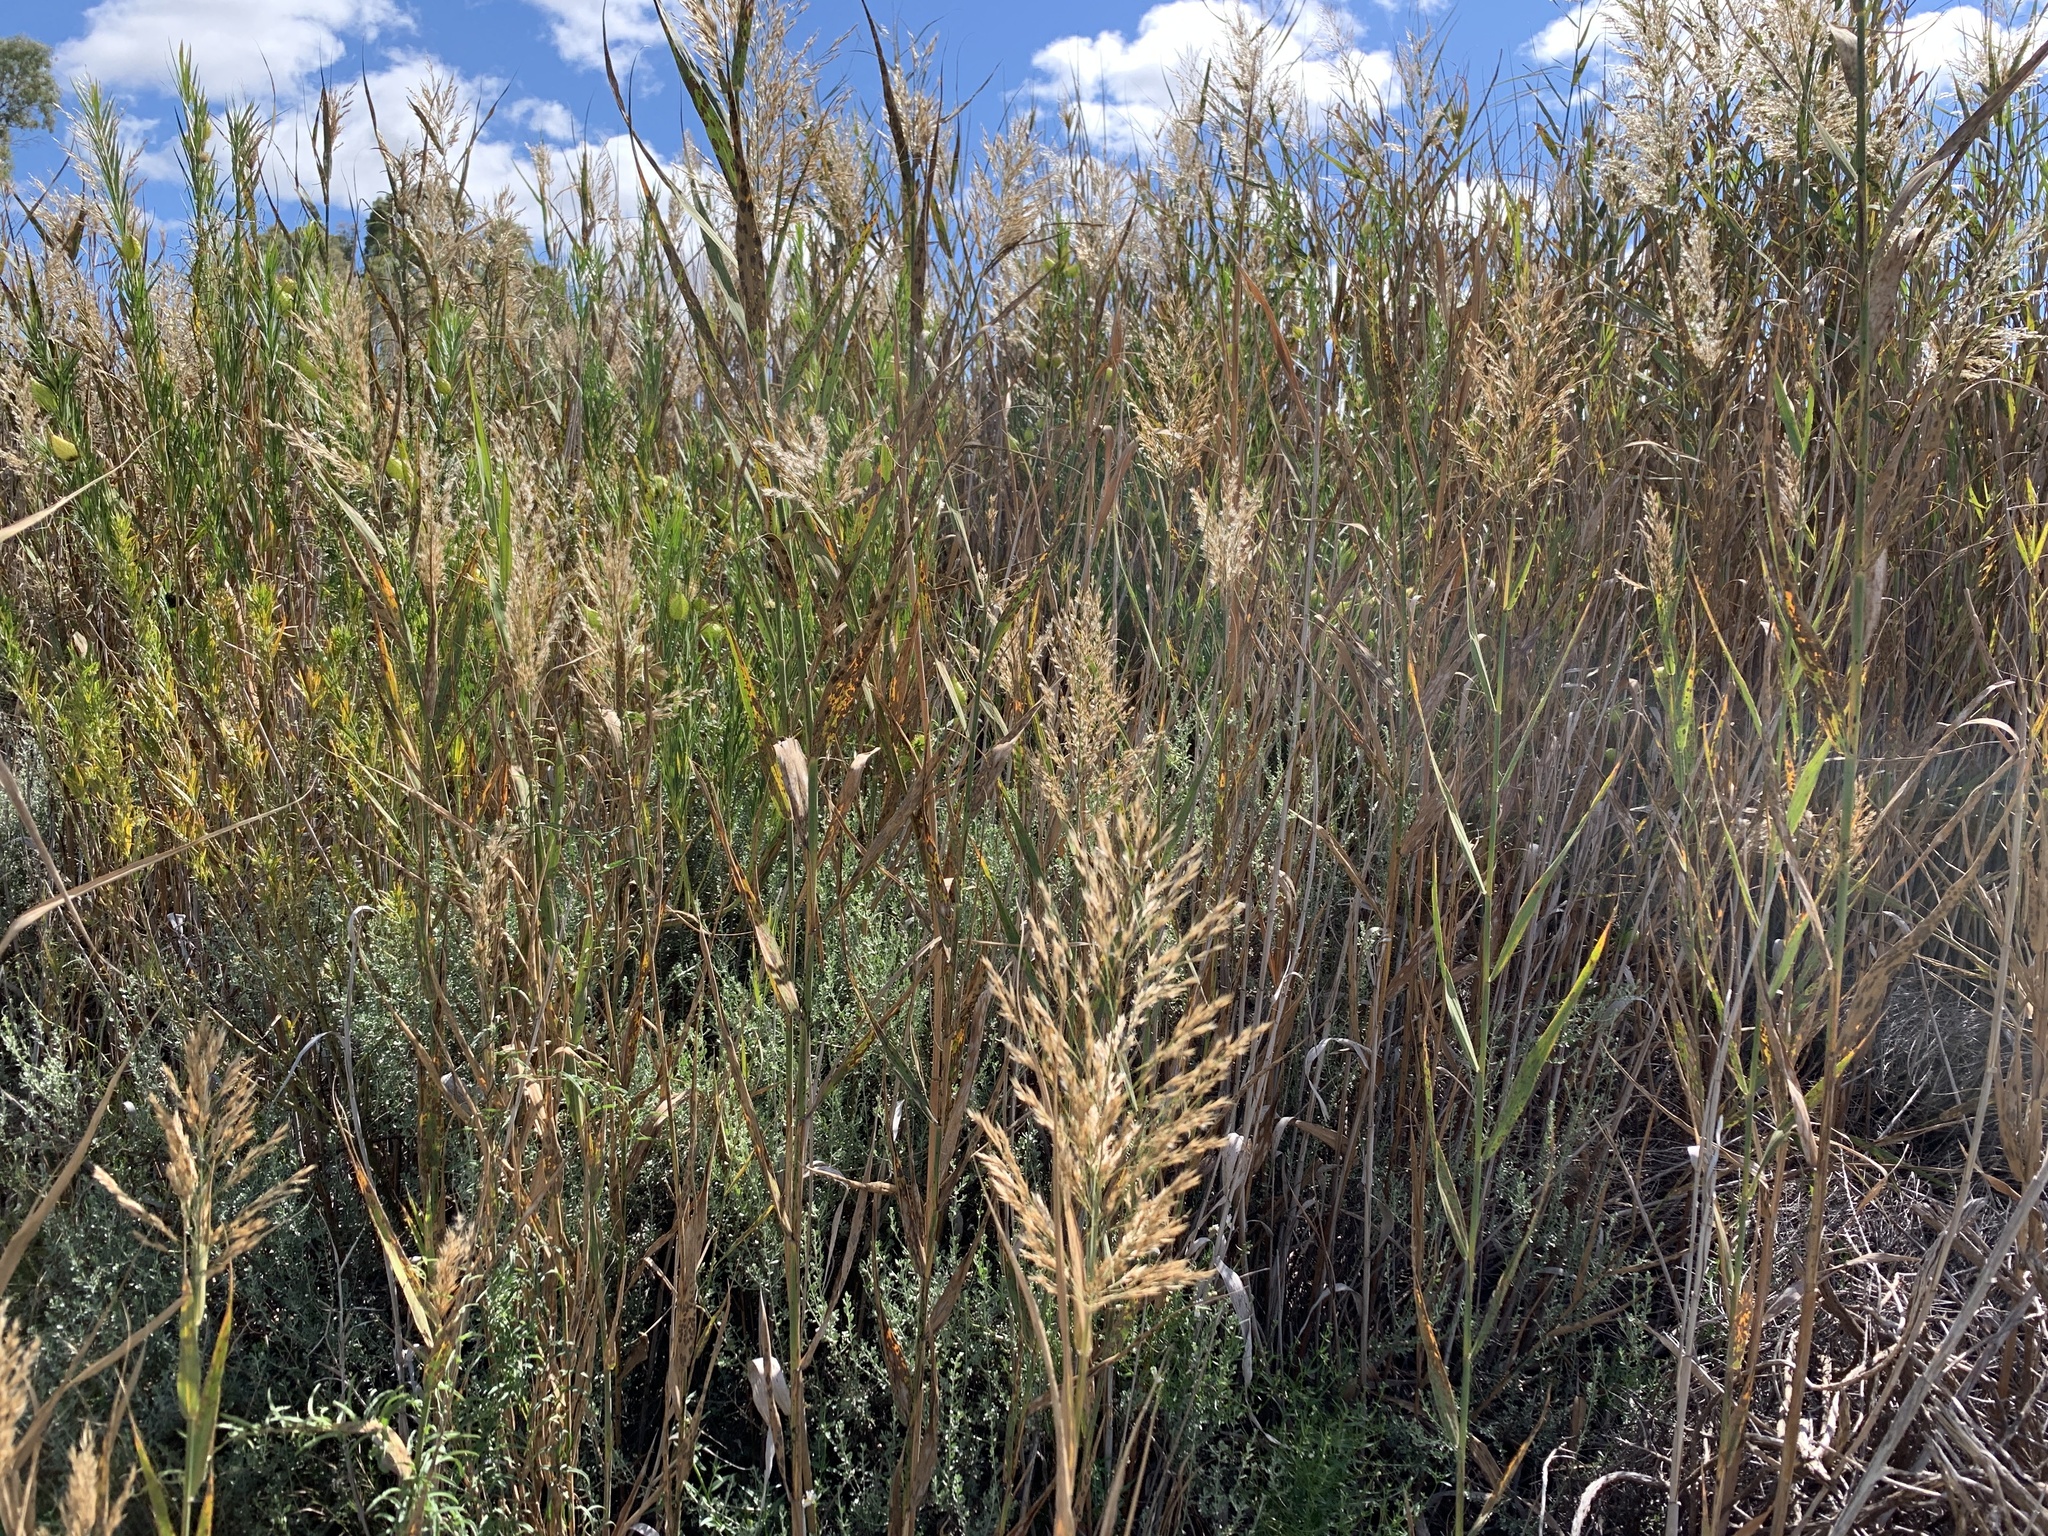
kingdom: Plantae
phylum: Tracheophyta
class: Liliopsida
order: Poales
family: Poaceae
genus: Phragmites
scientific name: Phragmites australis
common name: Common reed
